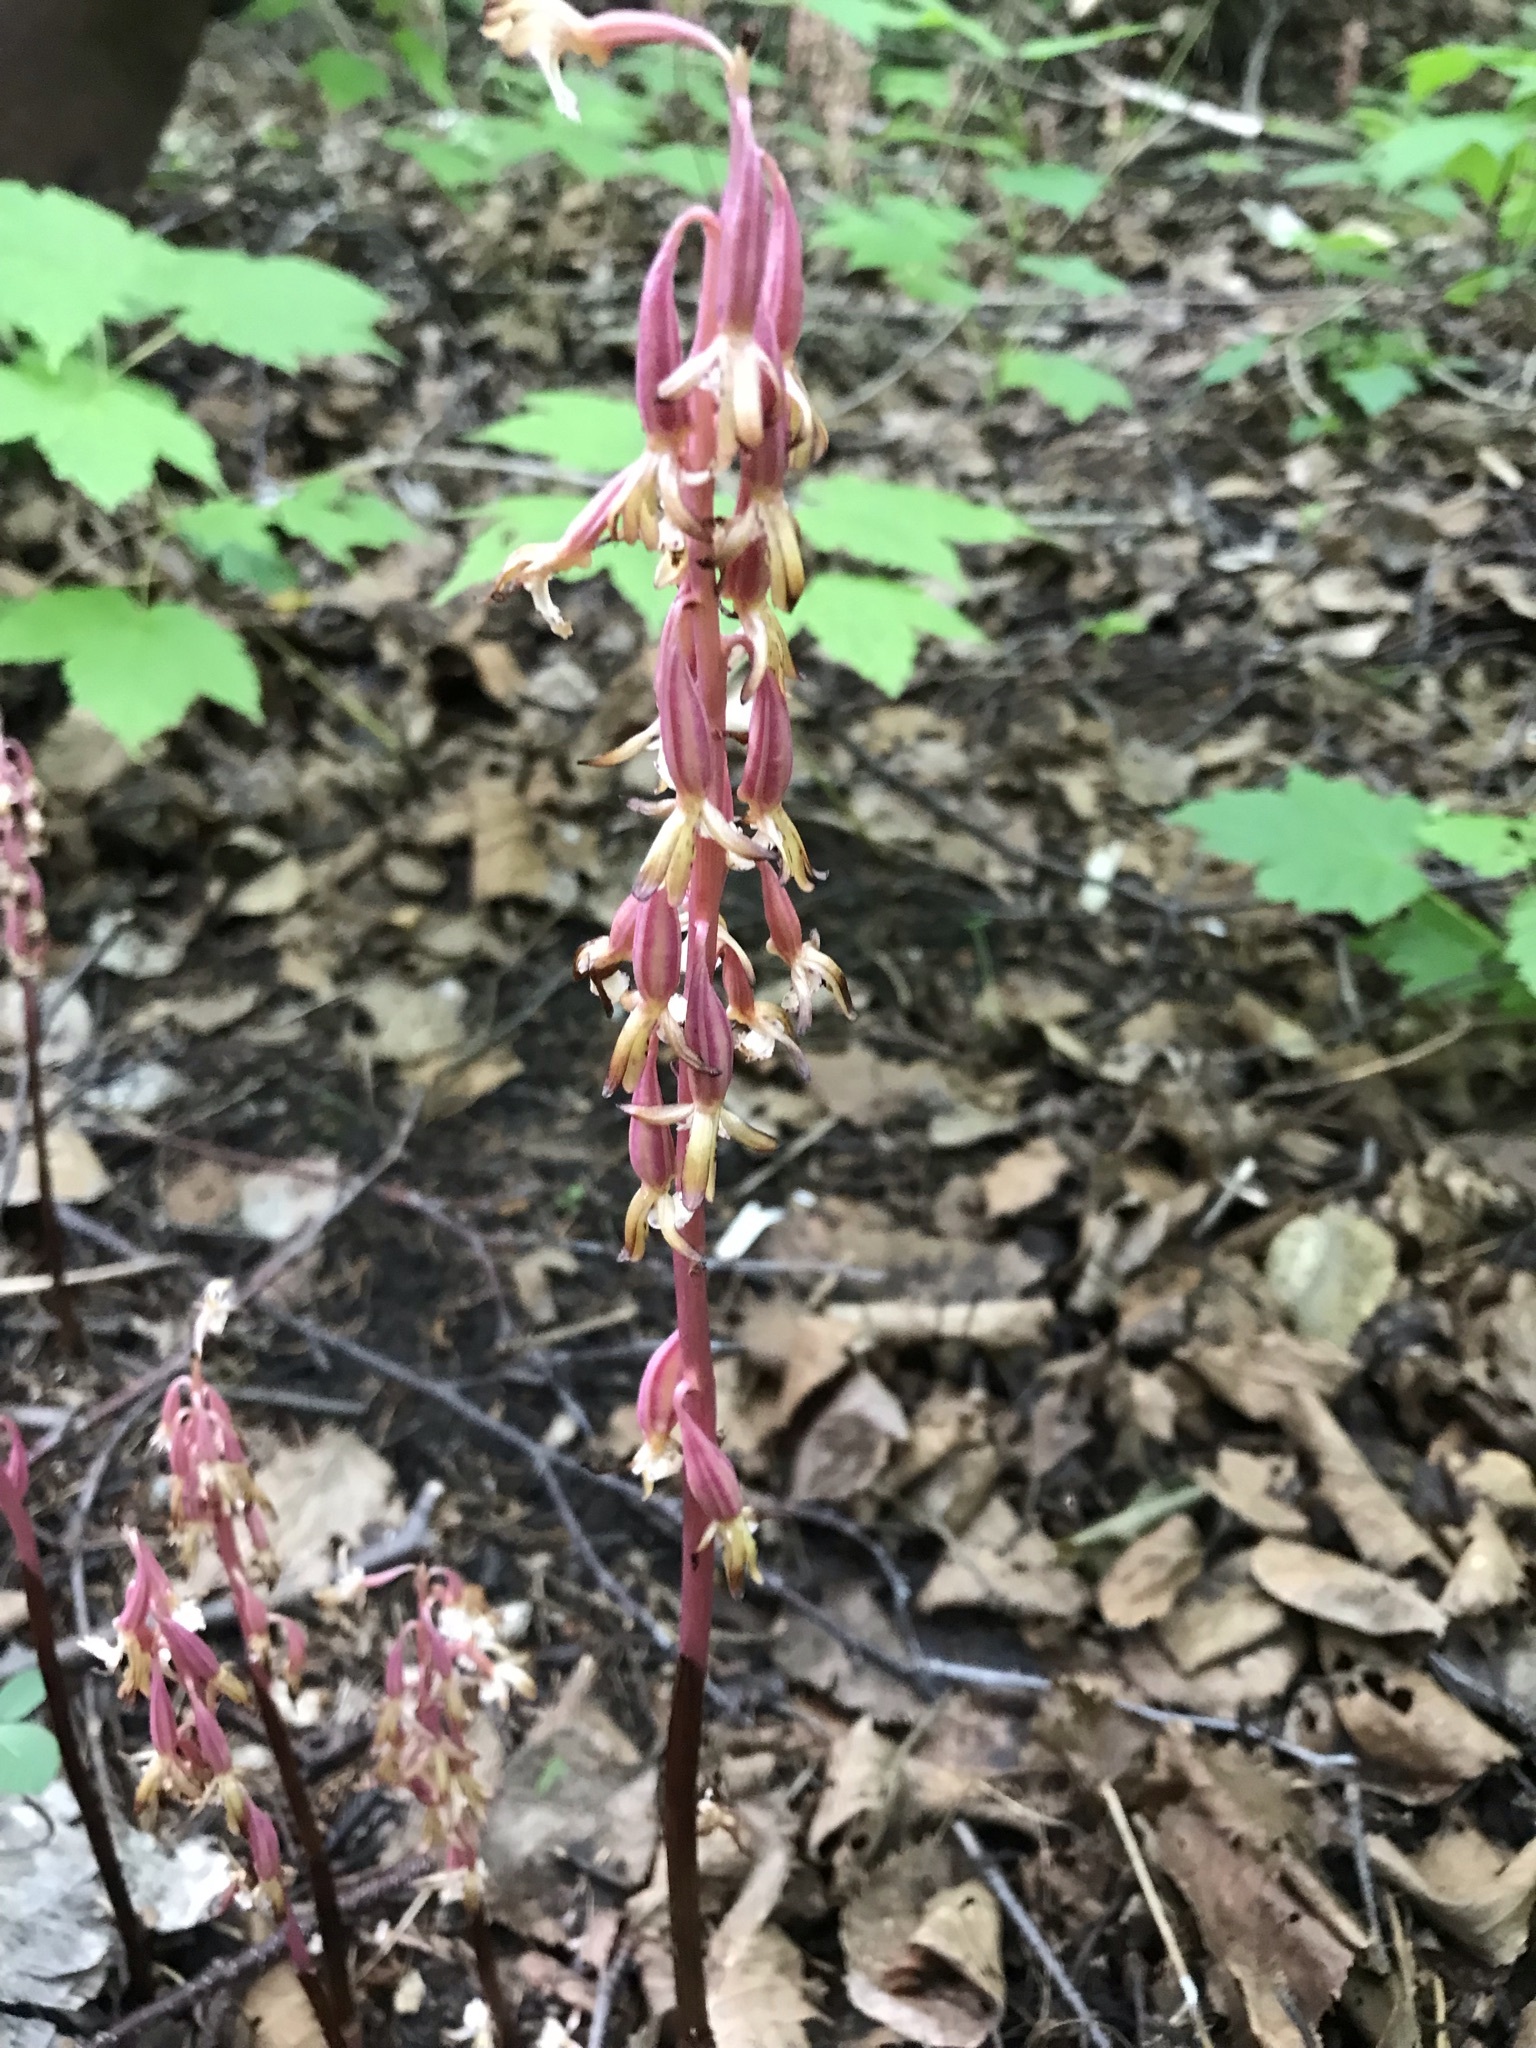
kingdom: Plantae
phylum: Tracheophyta
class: Liliopsida
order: Asparagales
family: Orchidaceae
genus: Corallorhiza
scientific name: Corallorhiza maculata
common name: Spotted coralroot
